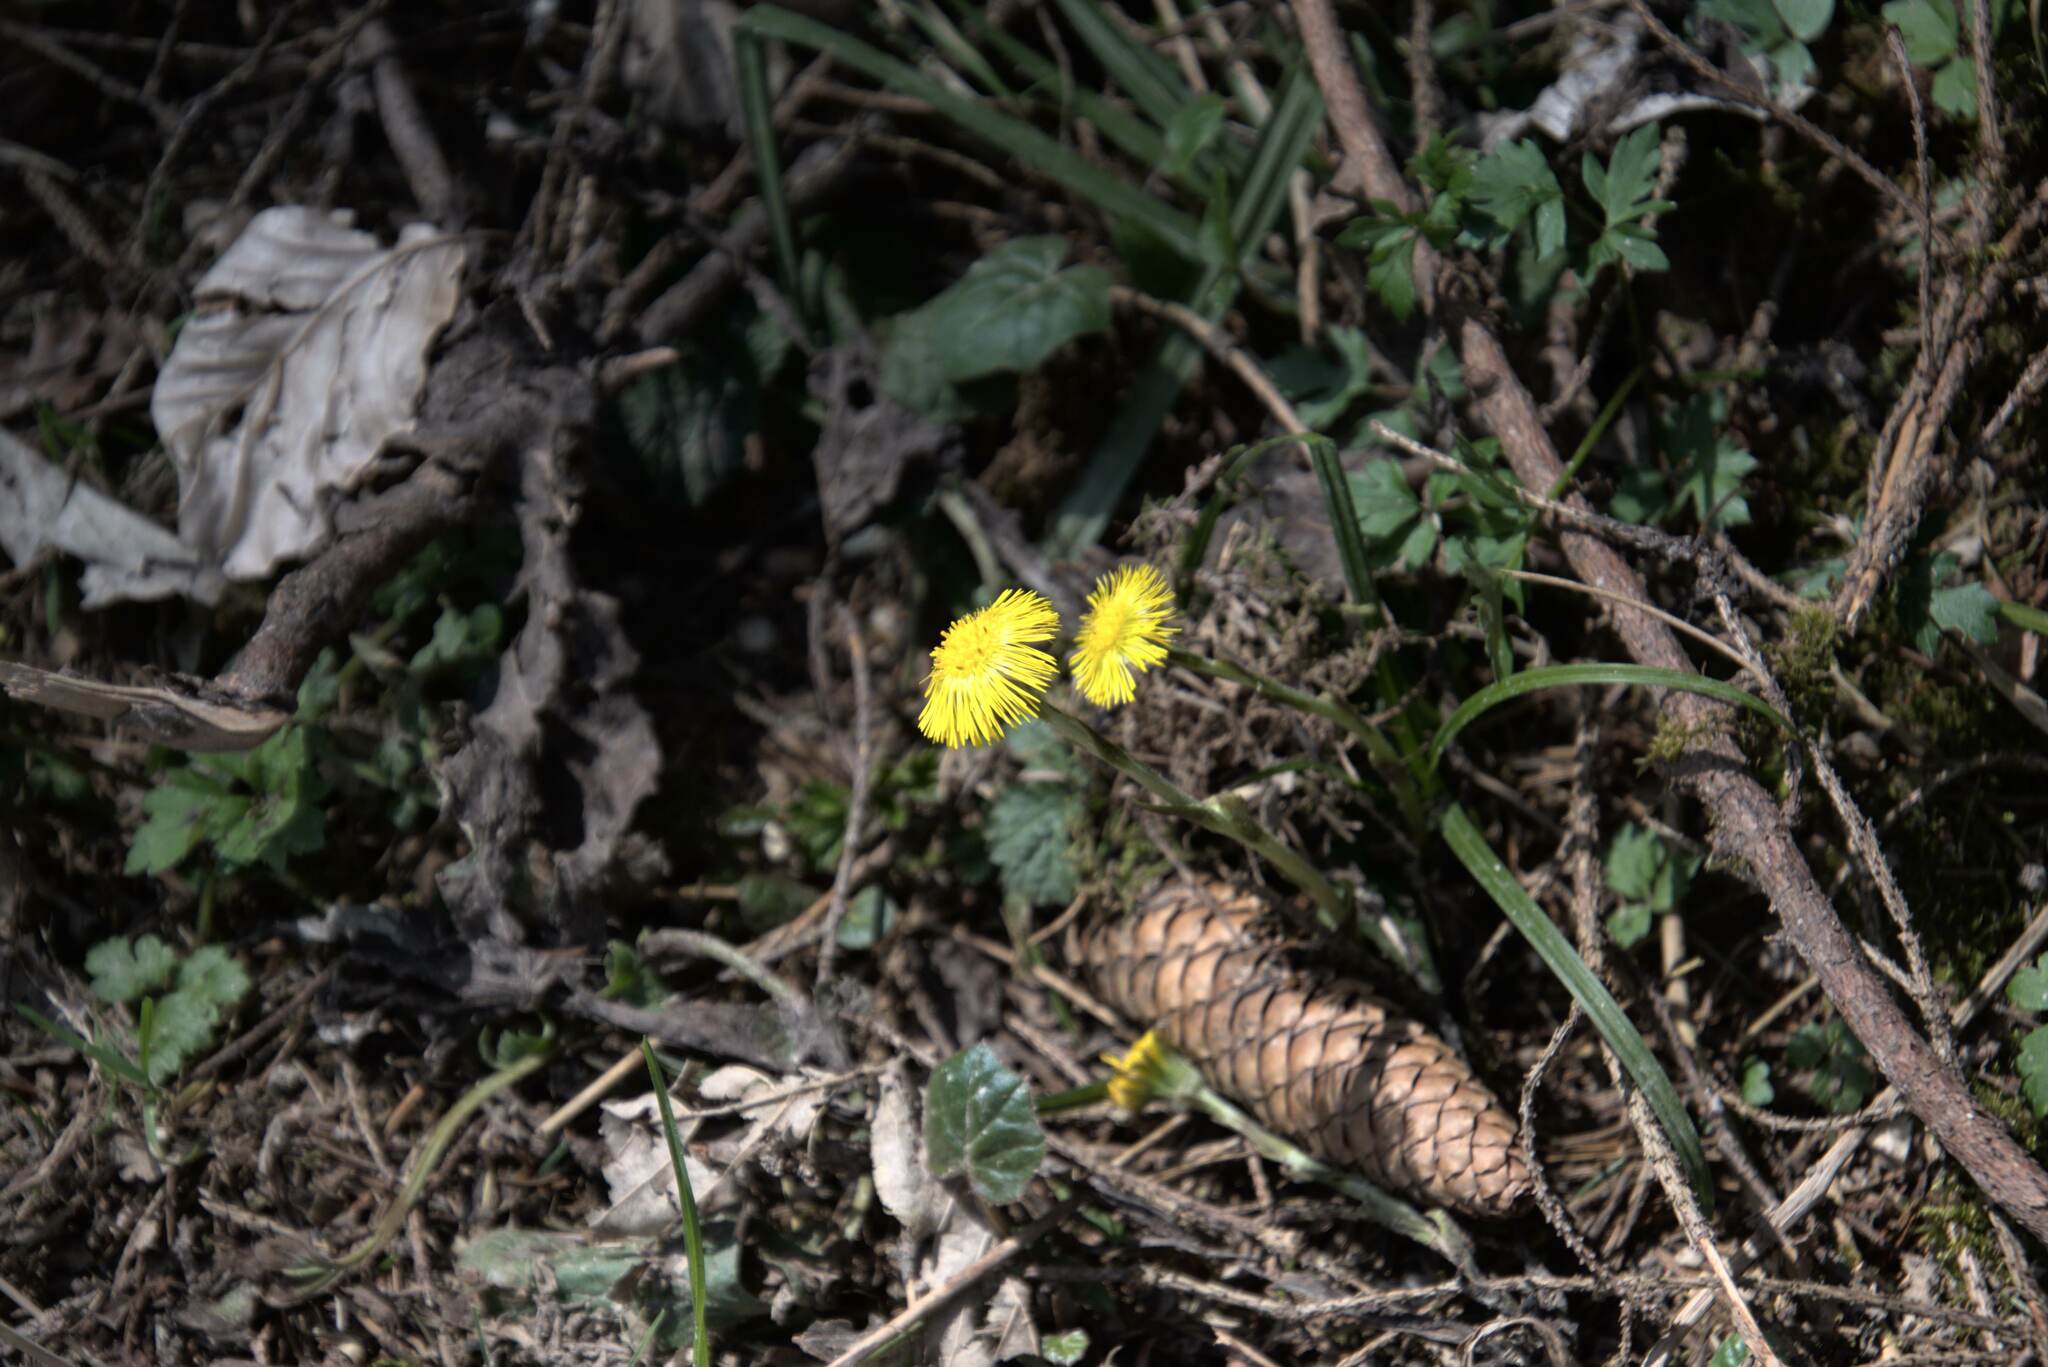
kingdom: Plantae
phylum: Tracheophyta
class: Magnoliopsida
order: Asterales
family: Asteraceae
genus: Tussilago
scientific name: Tussilago farfara
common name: Coltsfoot
